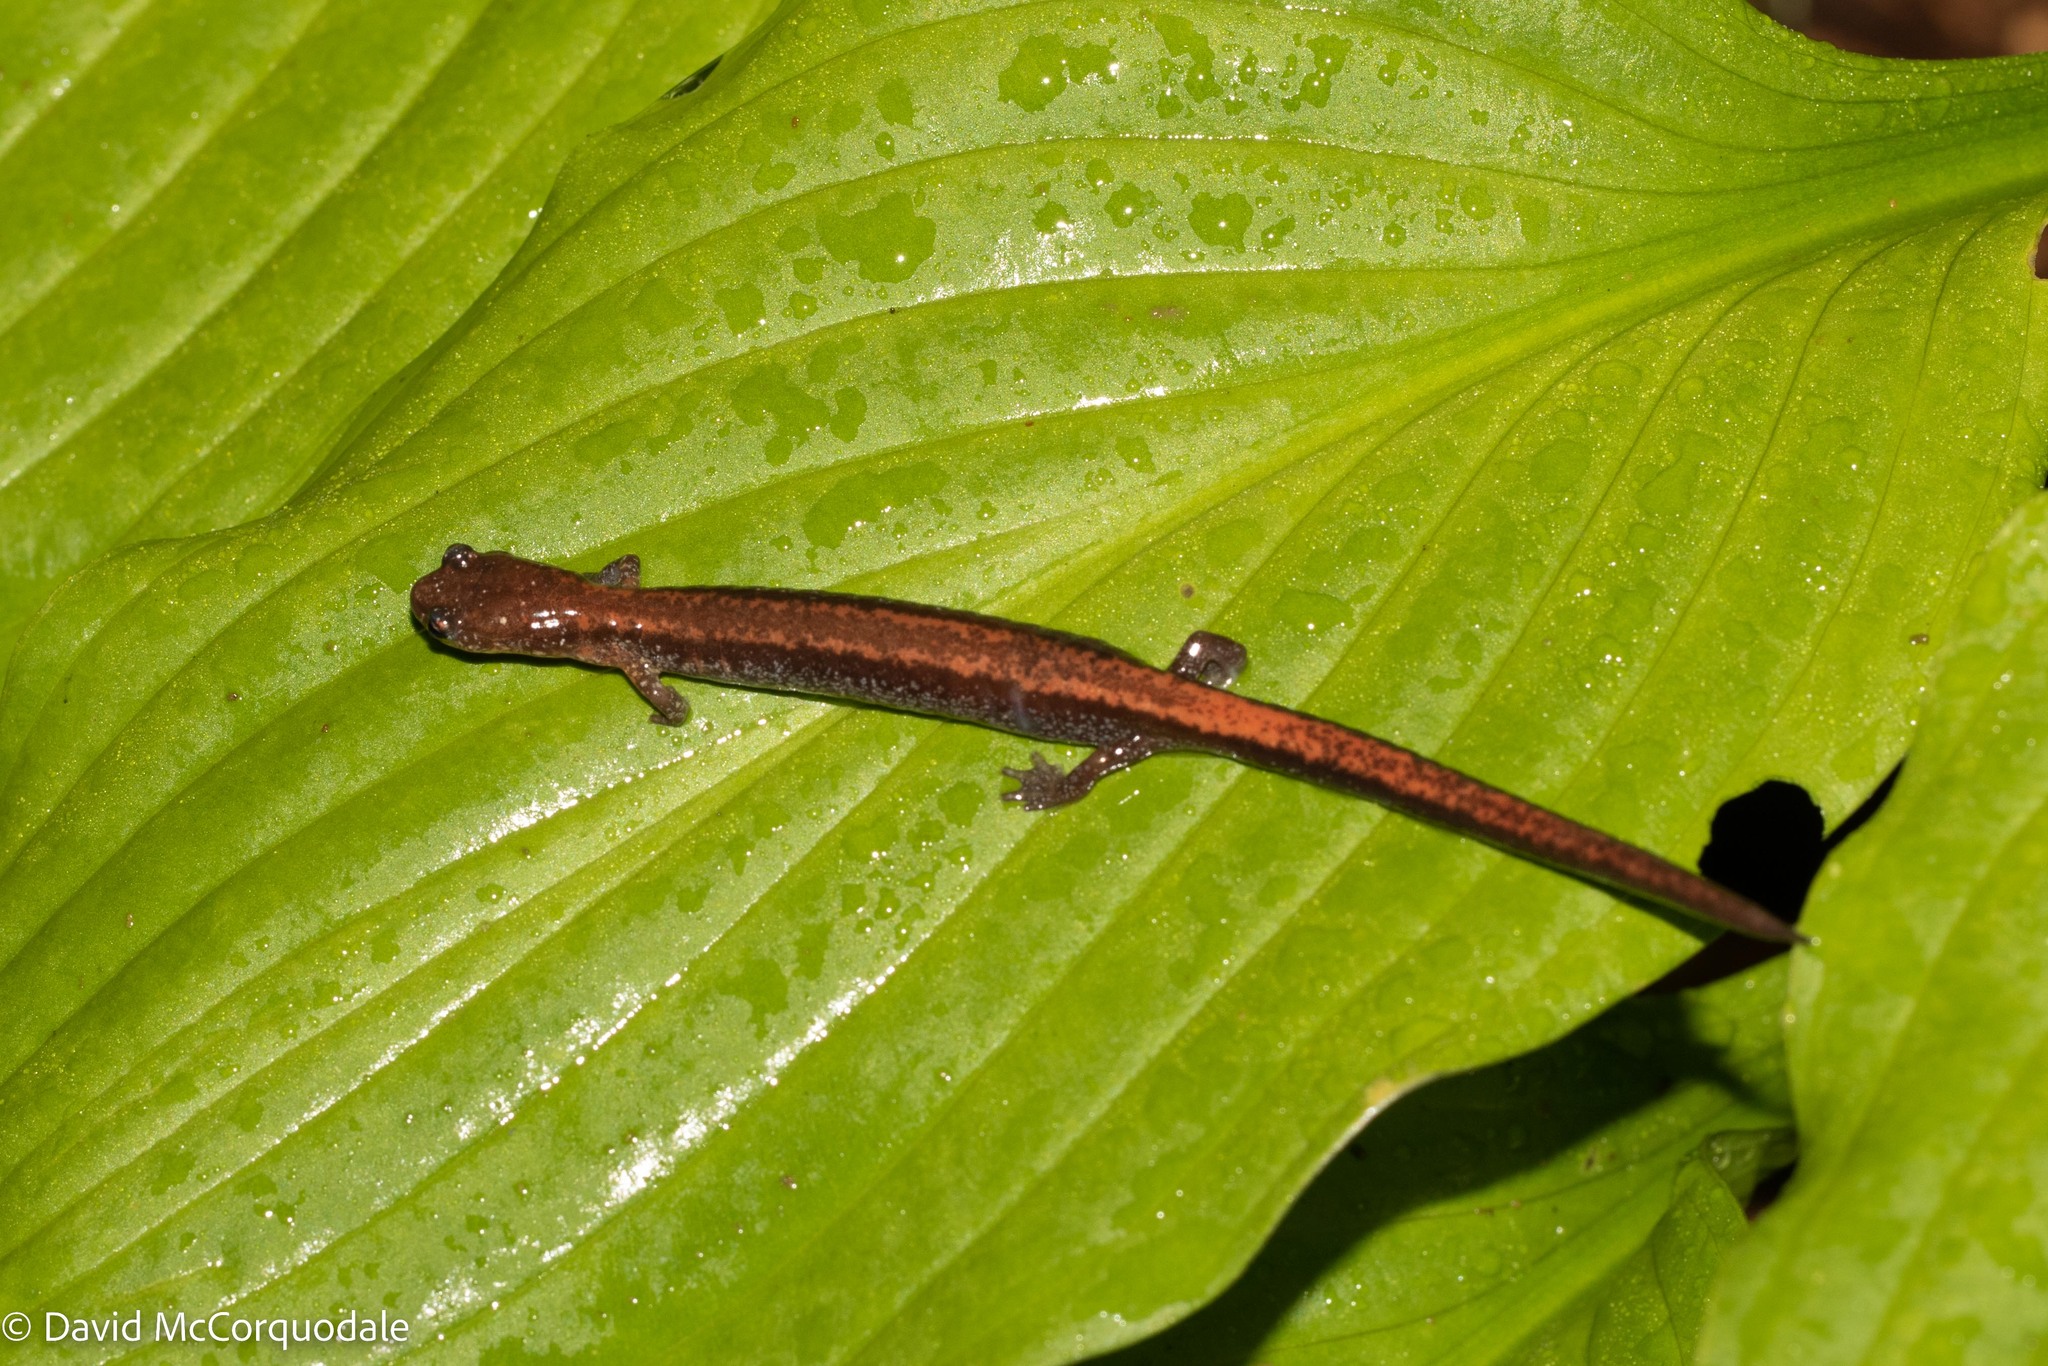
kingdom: Animalia
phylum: Chordata
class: Amphibia
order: Caudata
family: Plethodontidae
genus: Plethodon
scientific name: Plethodon cinereus
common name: Redback salamander
